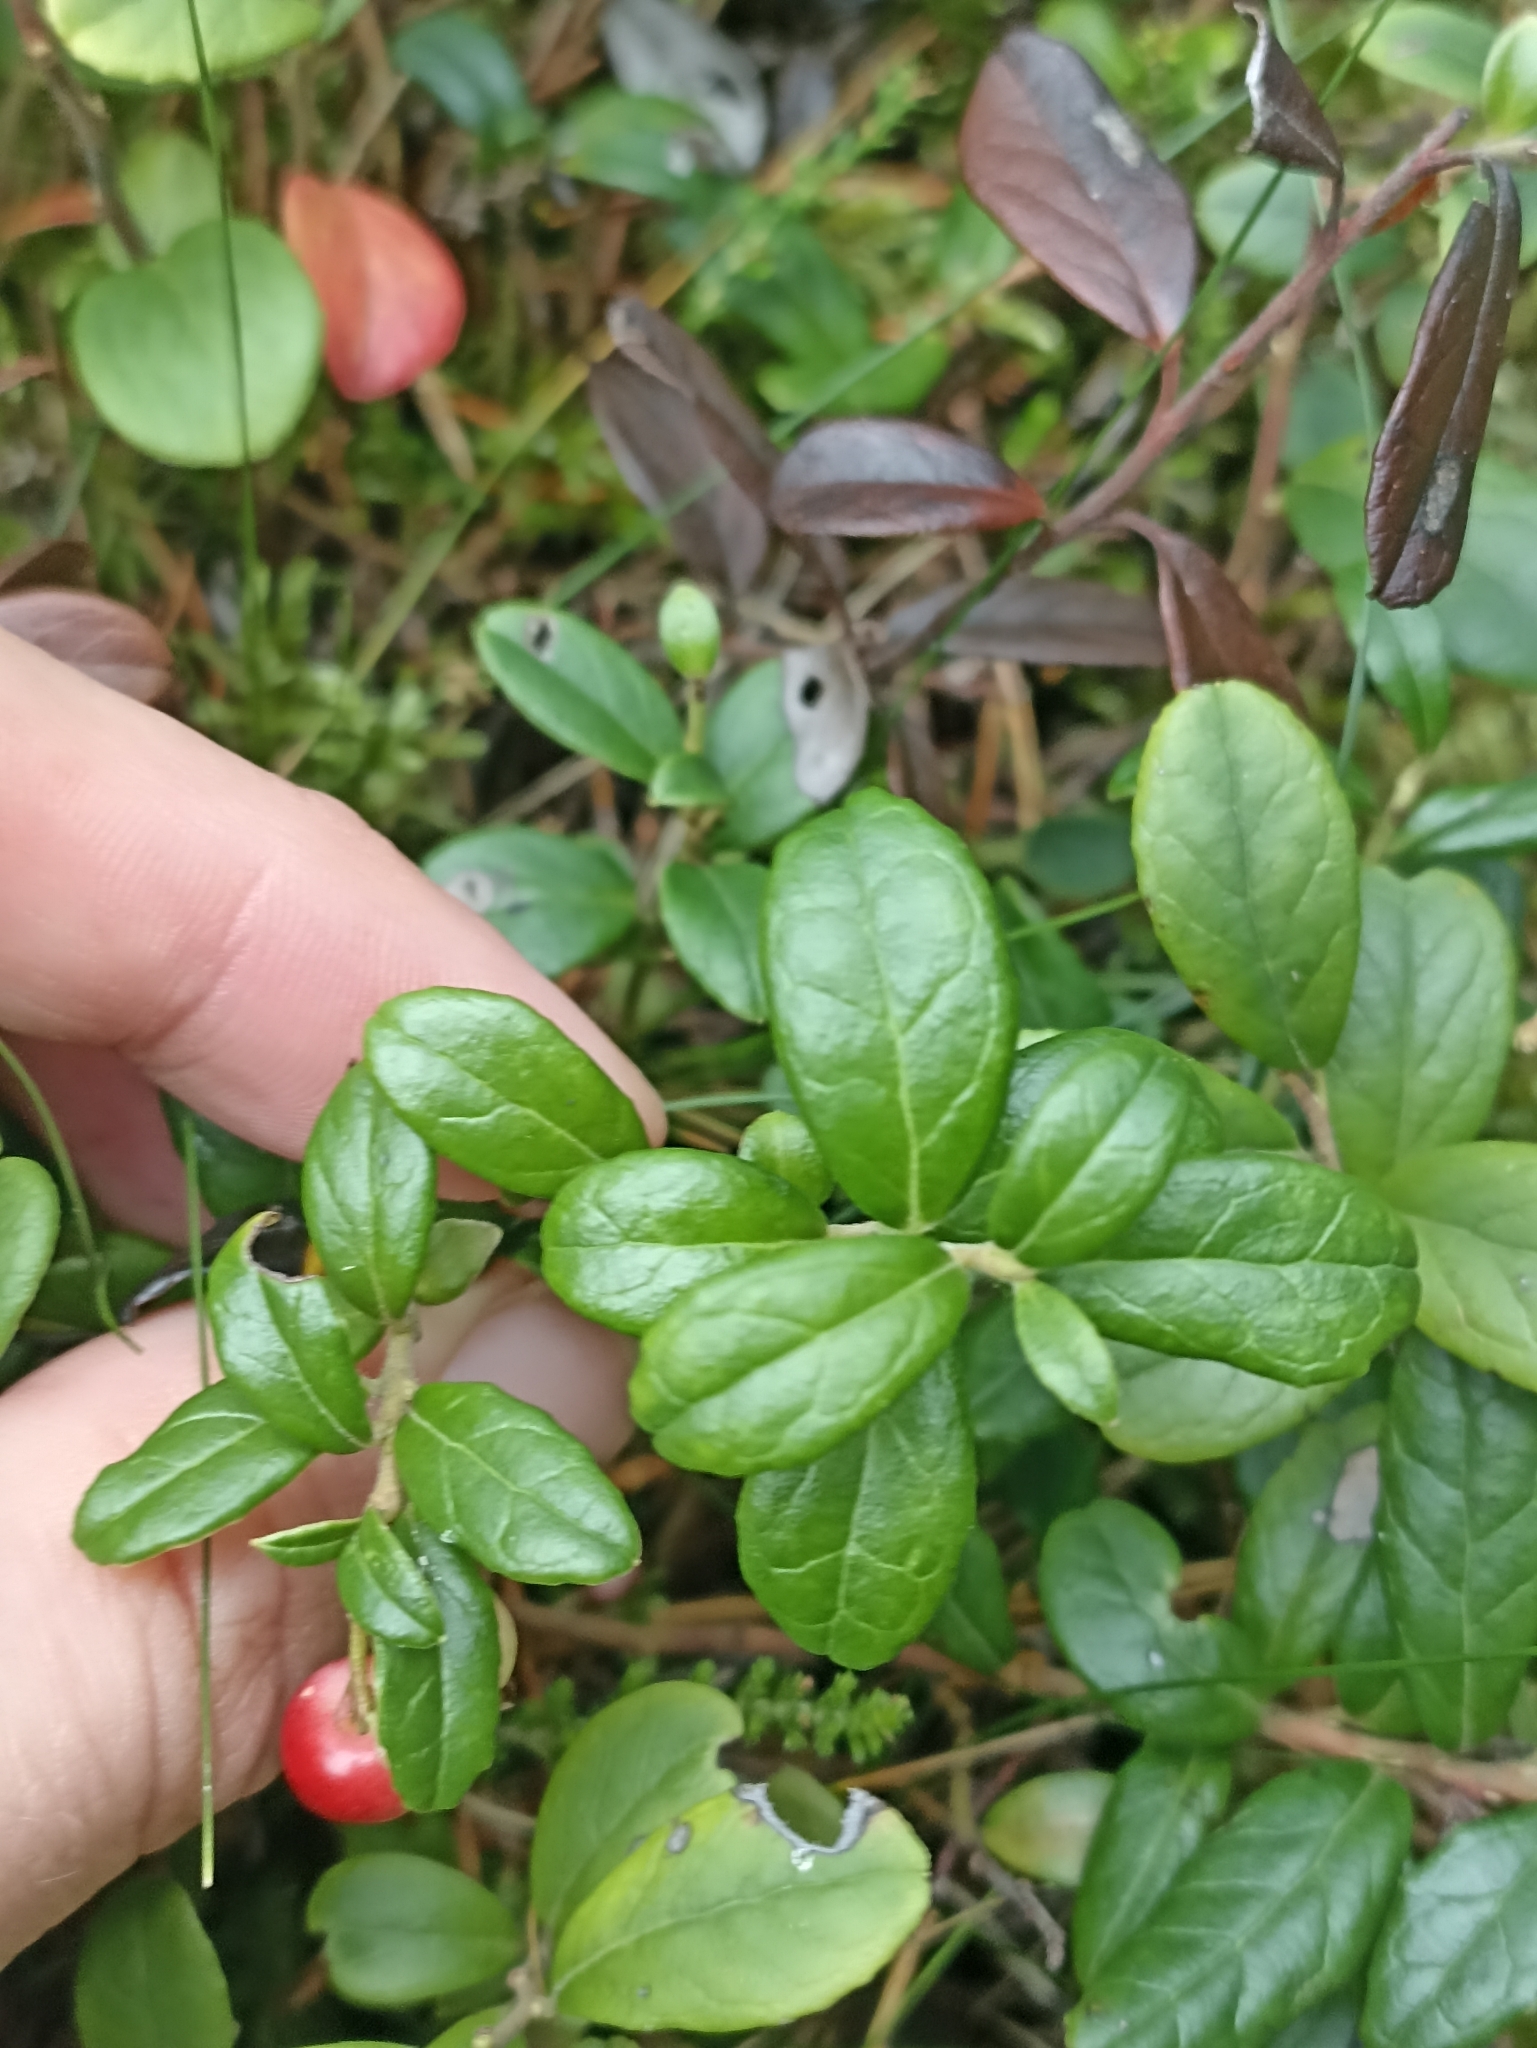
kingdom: Plantae
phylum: Tracheophyta
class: Magnoliopsida
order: Ericales
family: Ericaceae
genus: Vaccinium
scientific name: Vaccinium vitis-idaea
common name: Cowberry
